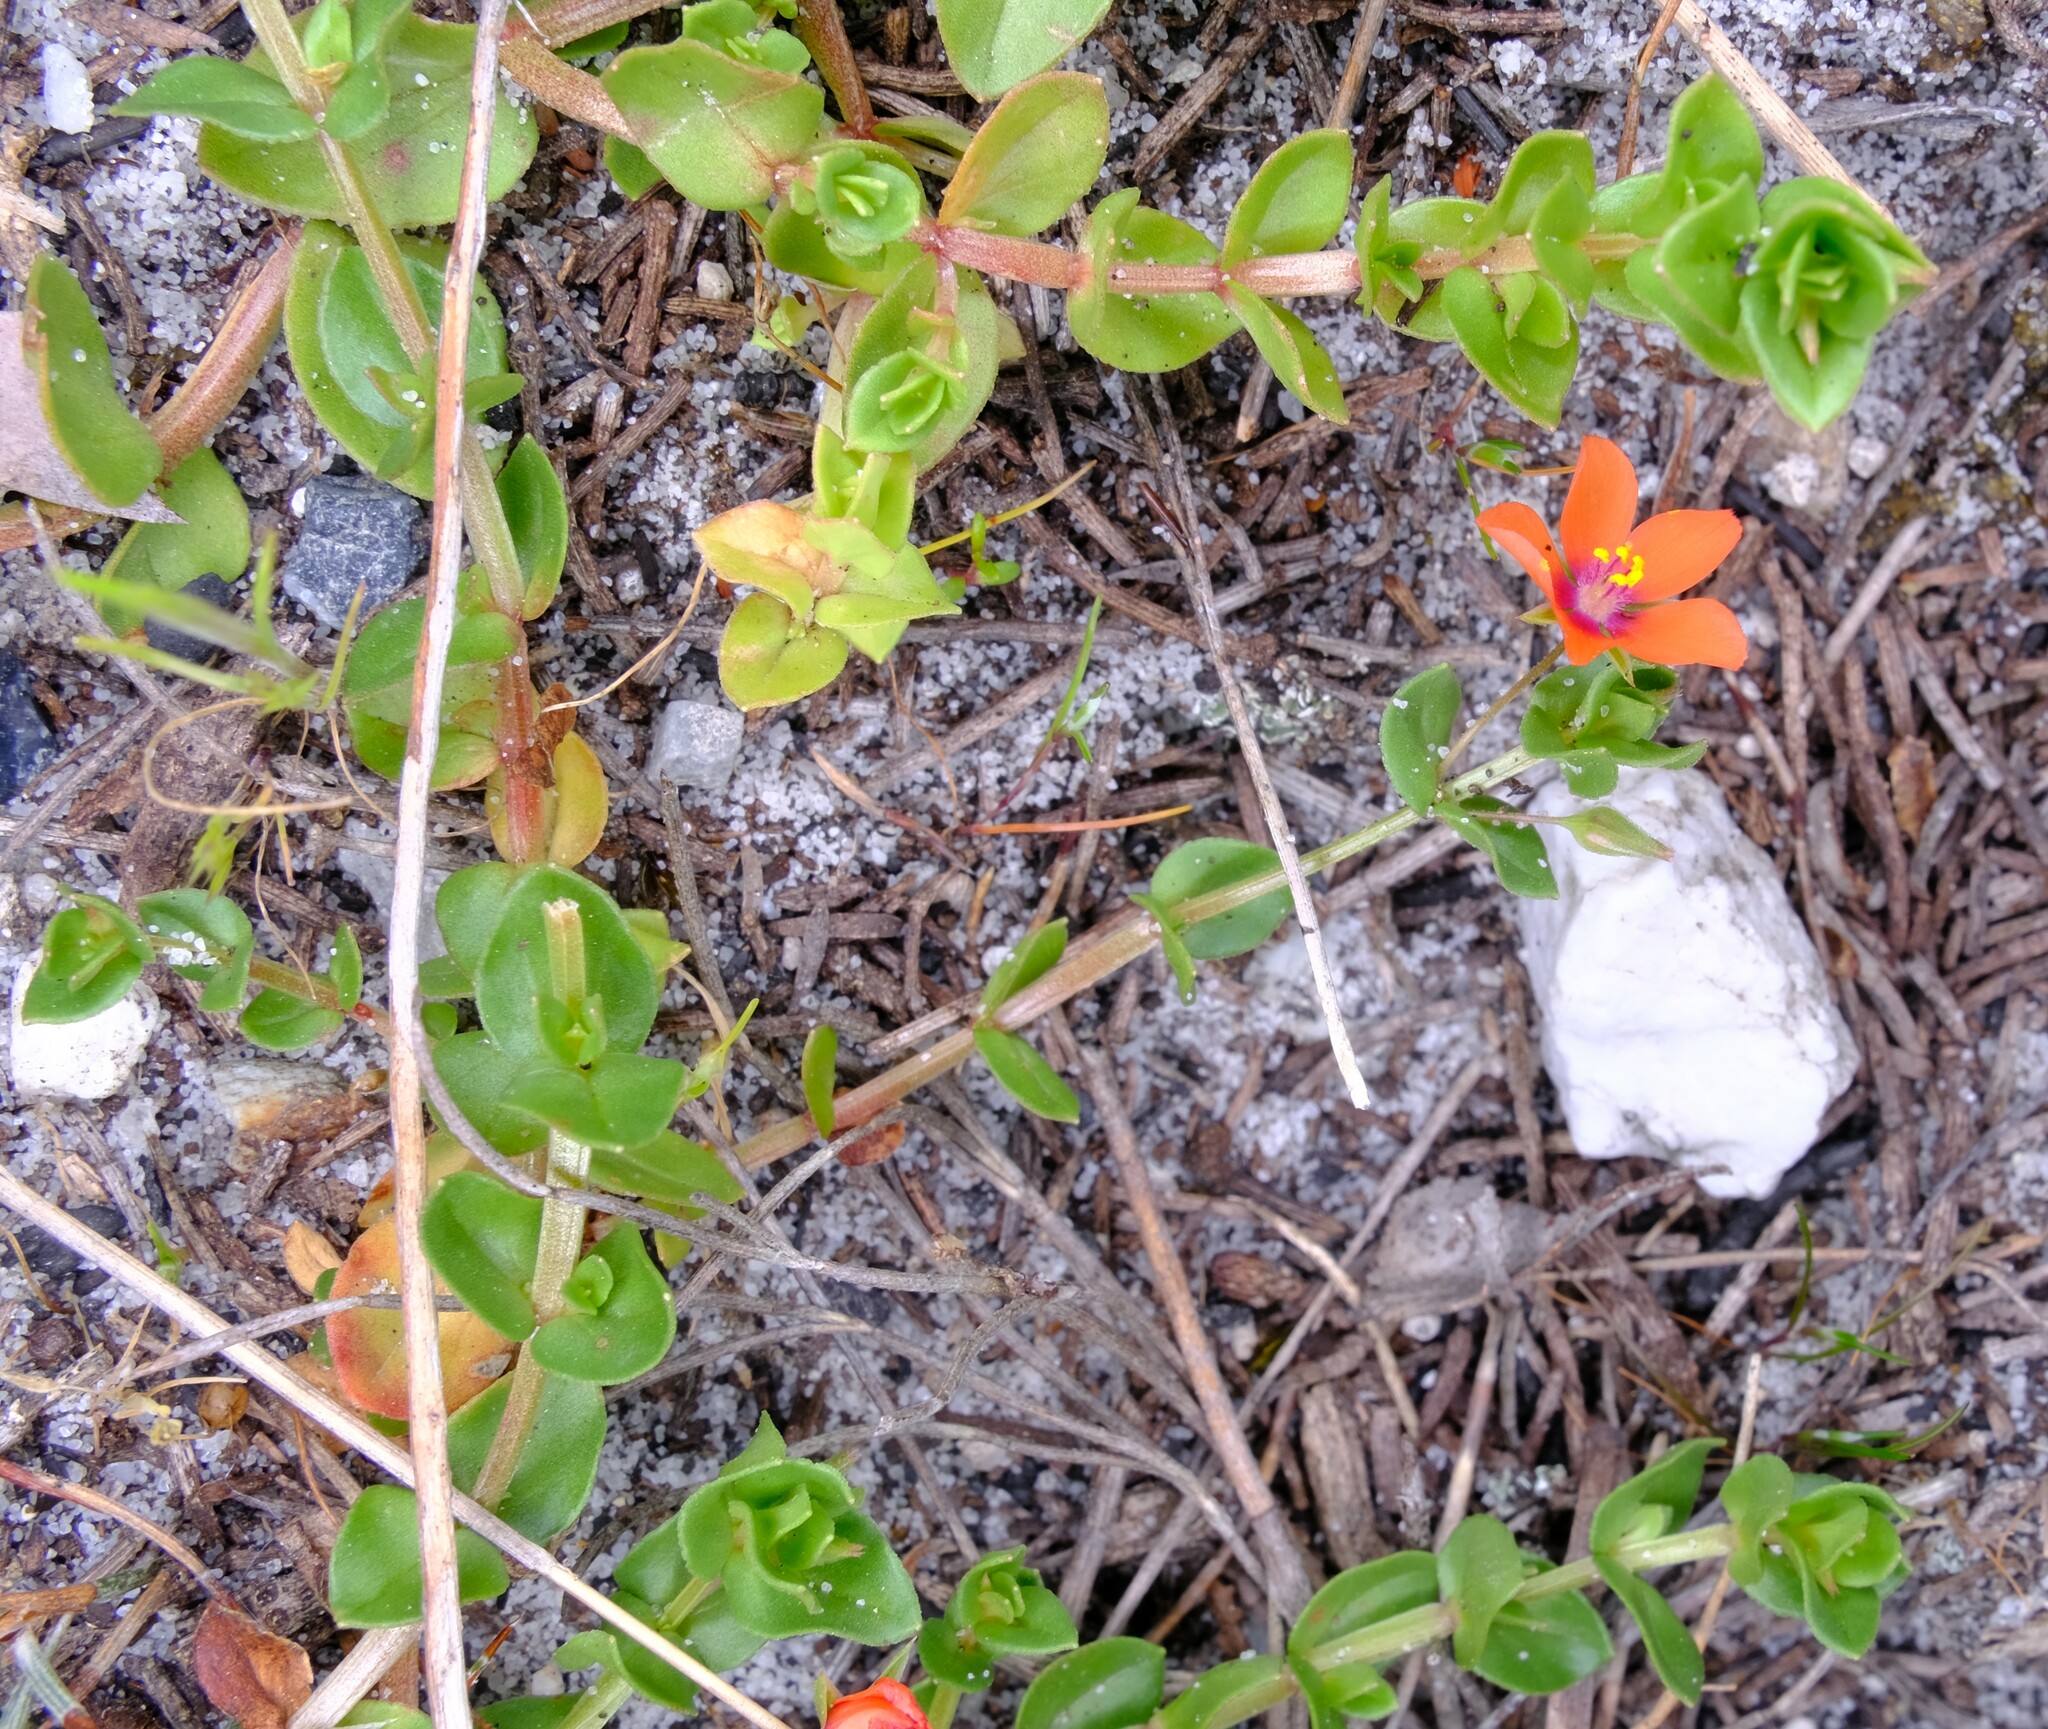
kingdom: Plantae
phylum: Tracheophyta
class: Magnoliopsida
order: Ericales
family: Primulaceae
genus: Lysimachia
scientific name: Lysimachia arvensis
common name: Scarlet pimpernel
